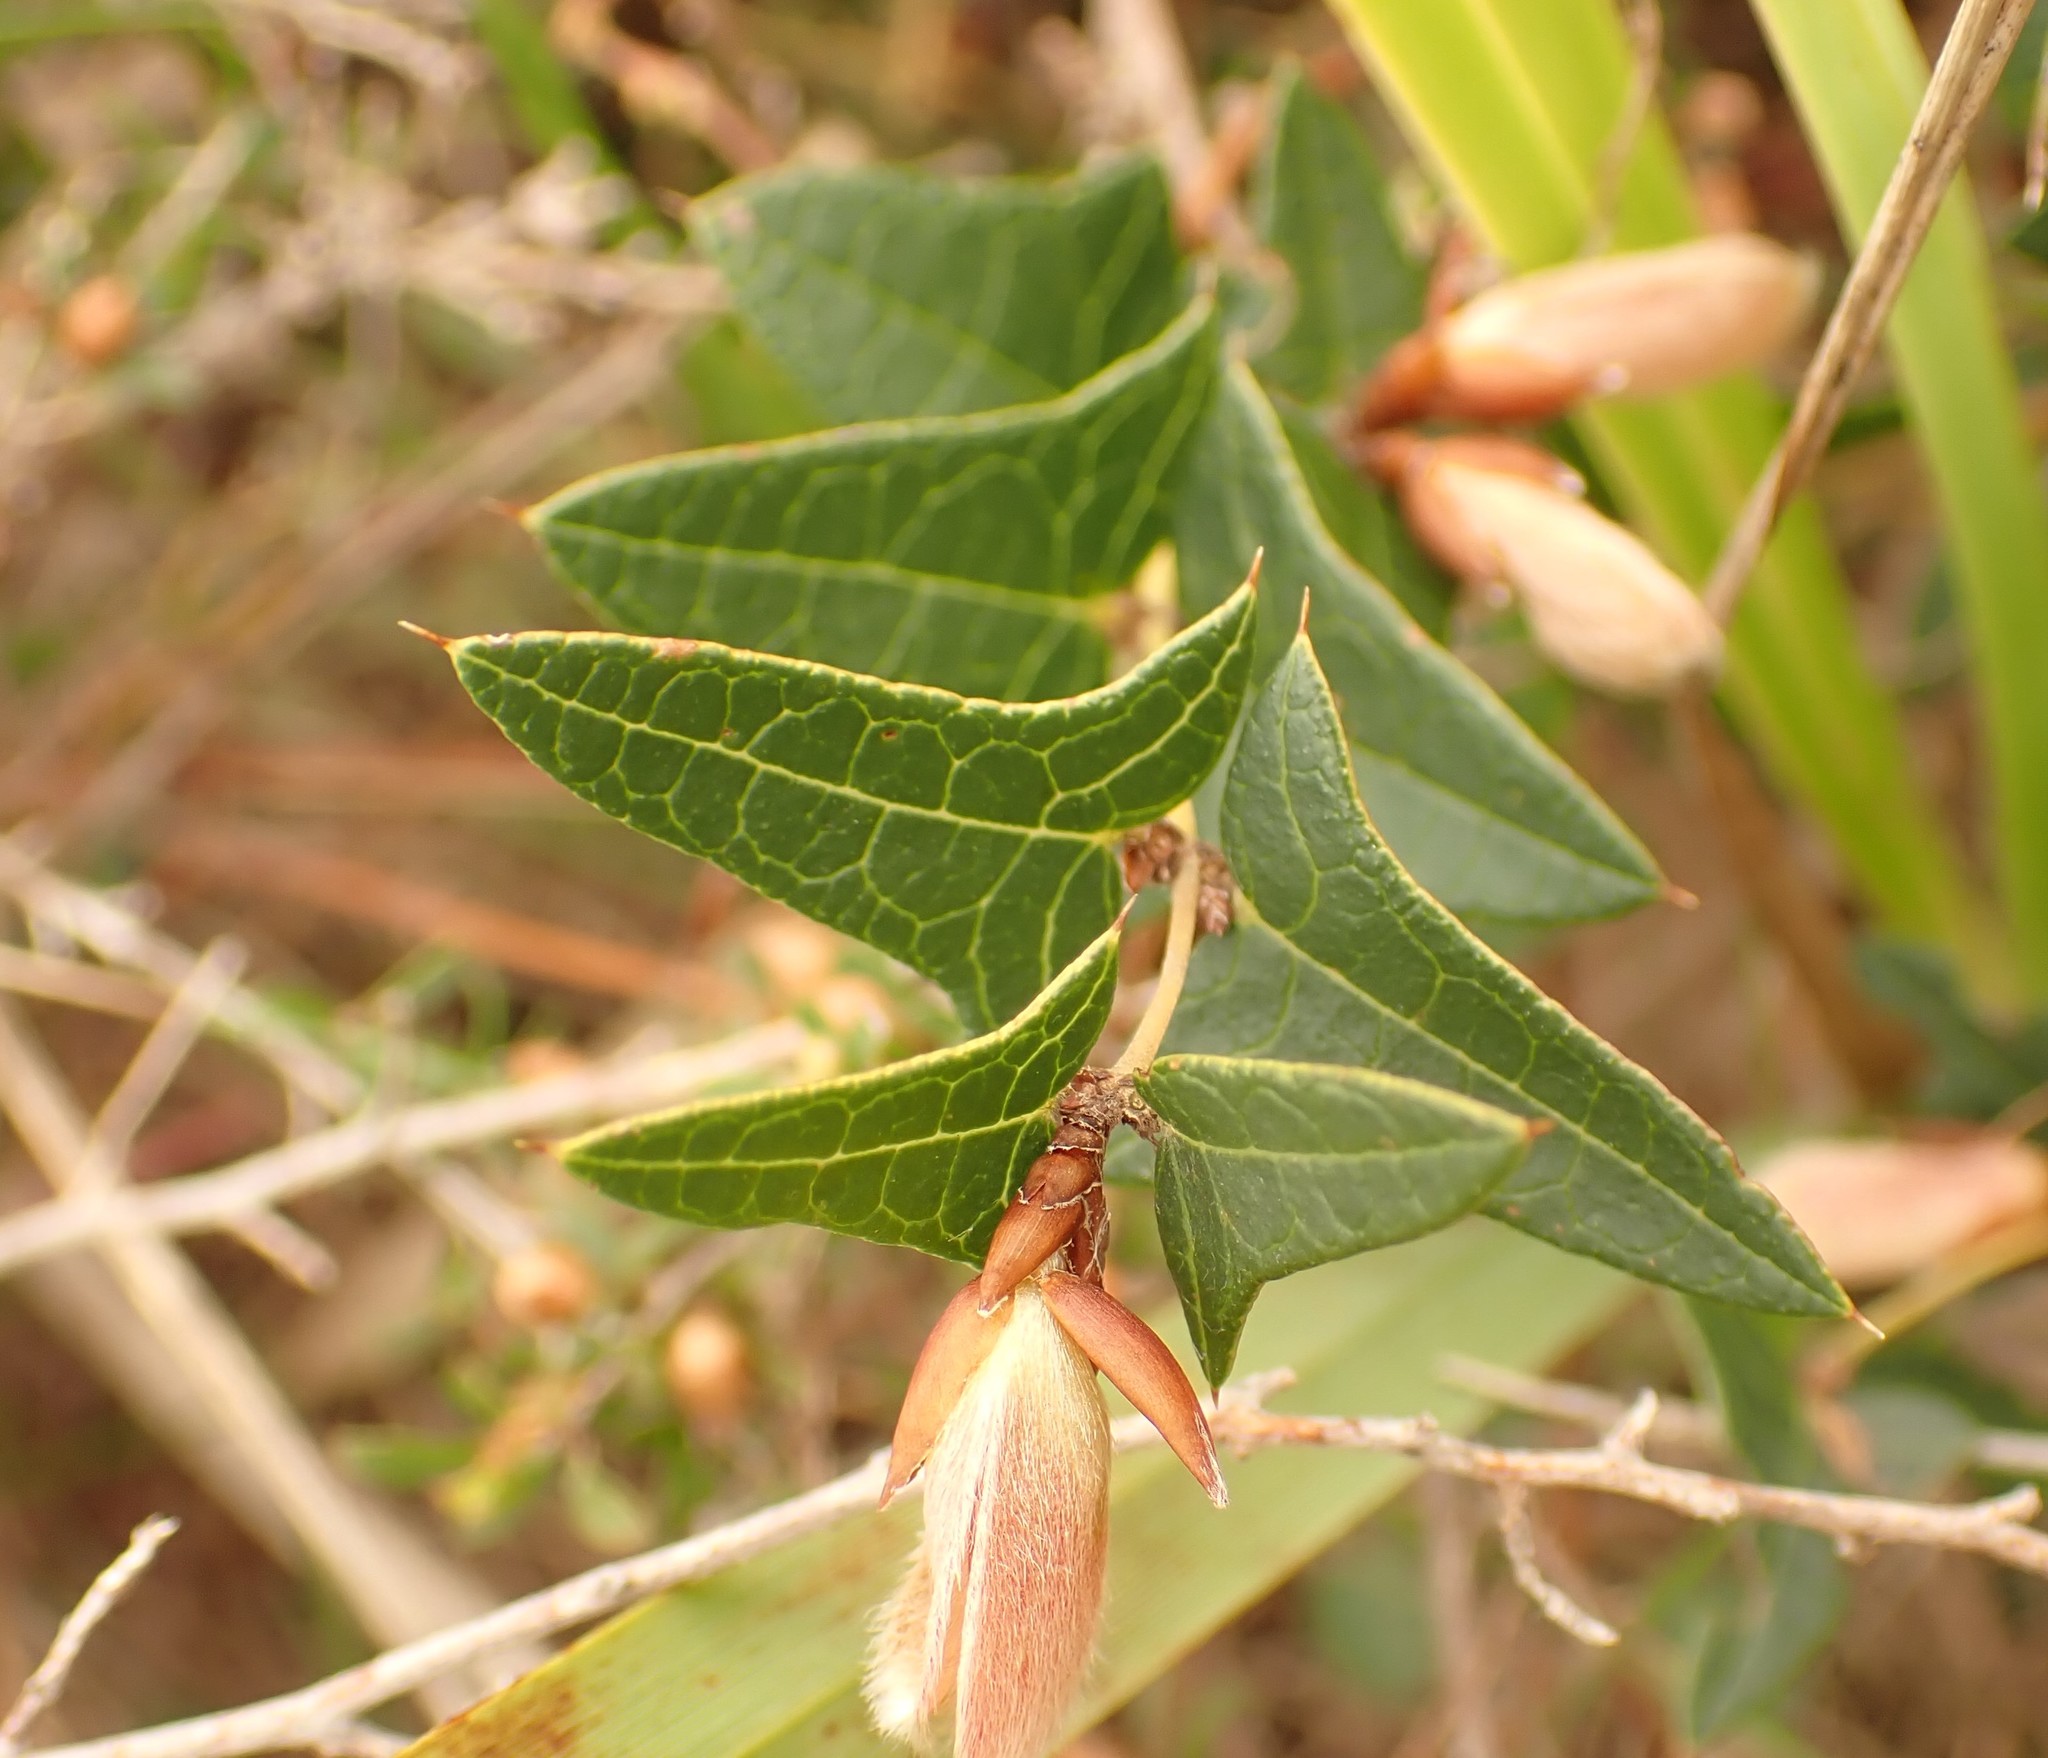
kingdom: Plantae
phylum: Tracheophyta
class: Magnoliopsida
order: Fabales
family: Fabaceae
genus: Platylobium
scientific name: Platylobium obtusangulum
